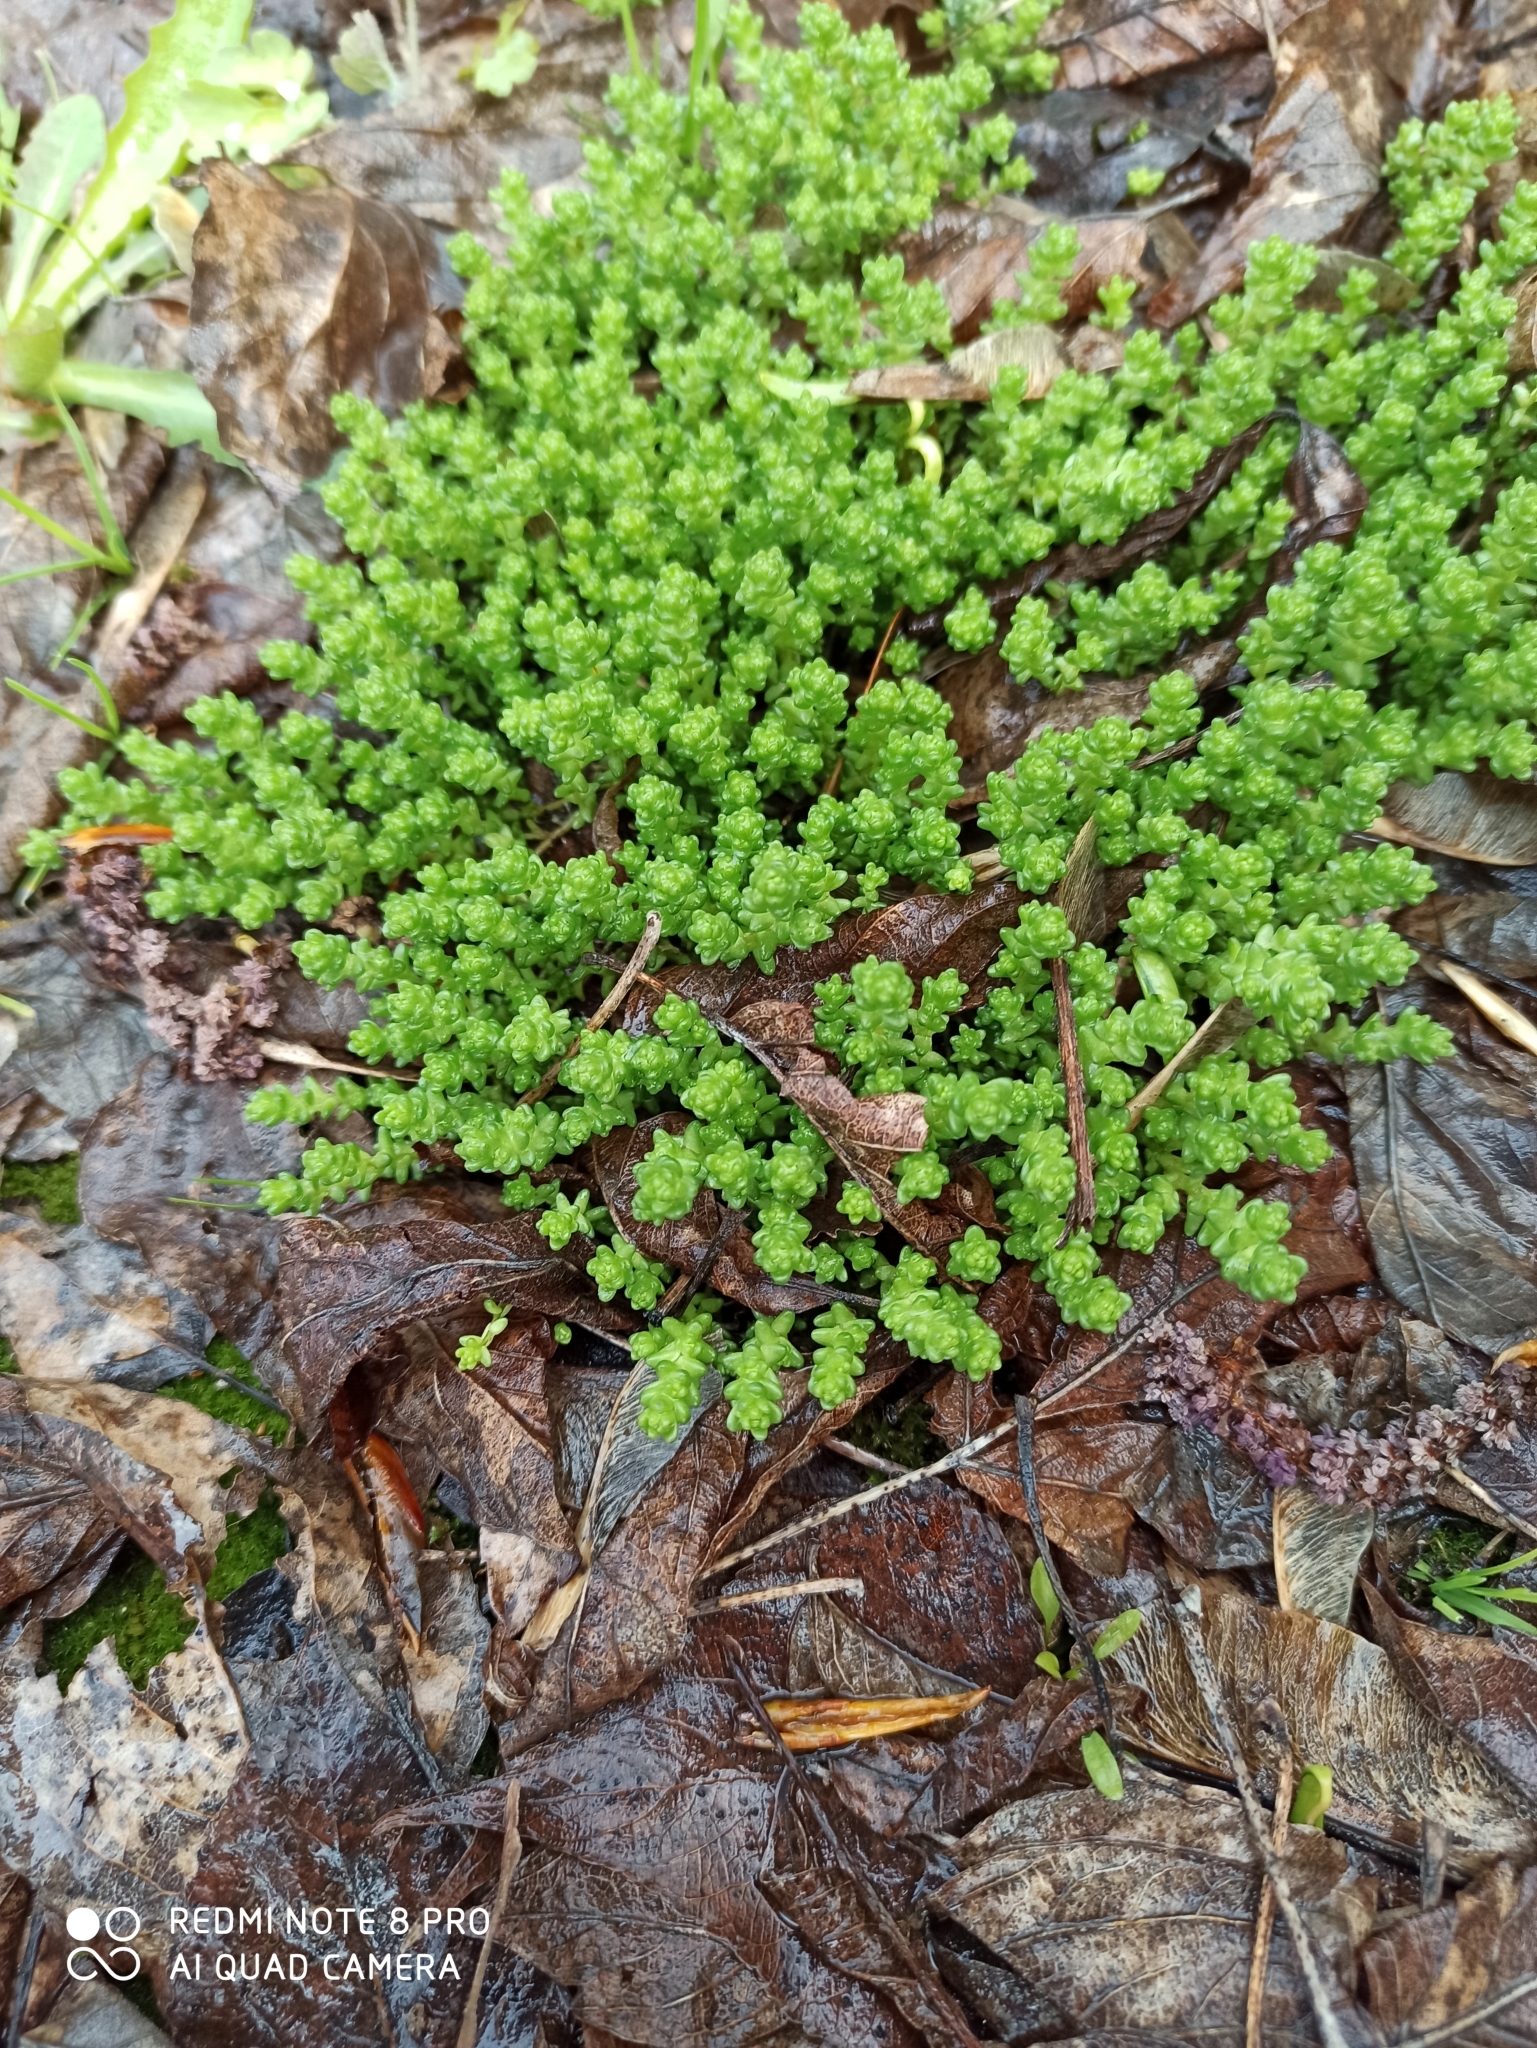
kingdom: Plantae
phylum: Tracheophyta
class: Magnoliopsida
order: Saxifragales
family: Crassulaceae
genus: Sedum
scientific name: Sedum acre
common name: Biting stonecrop
